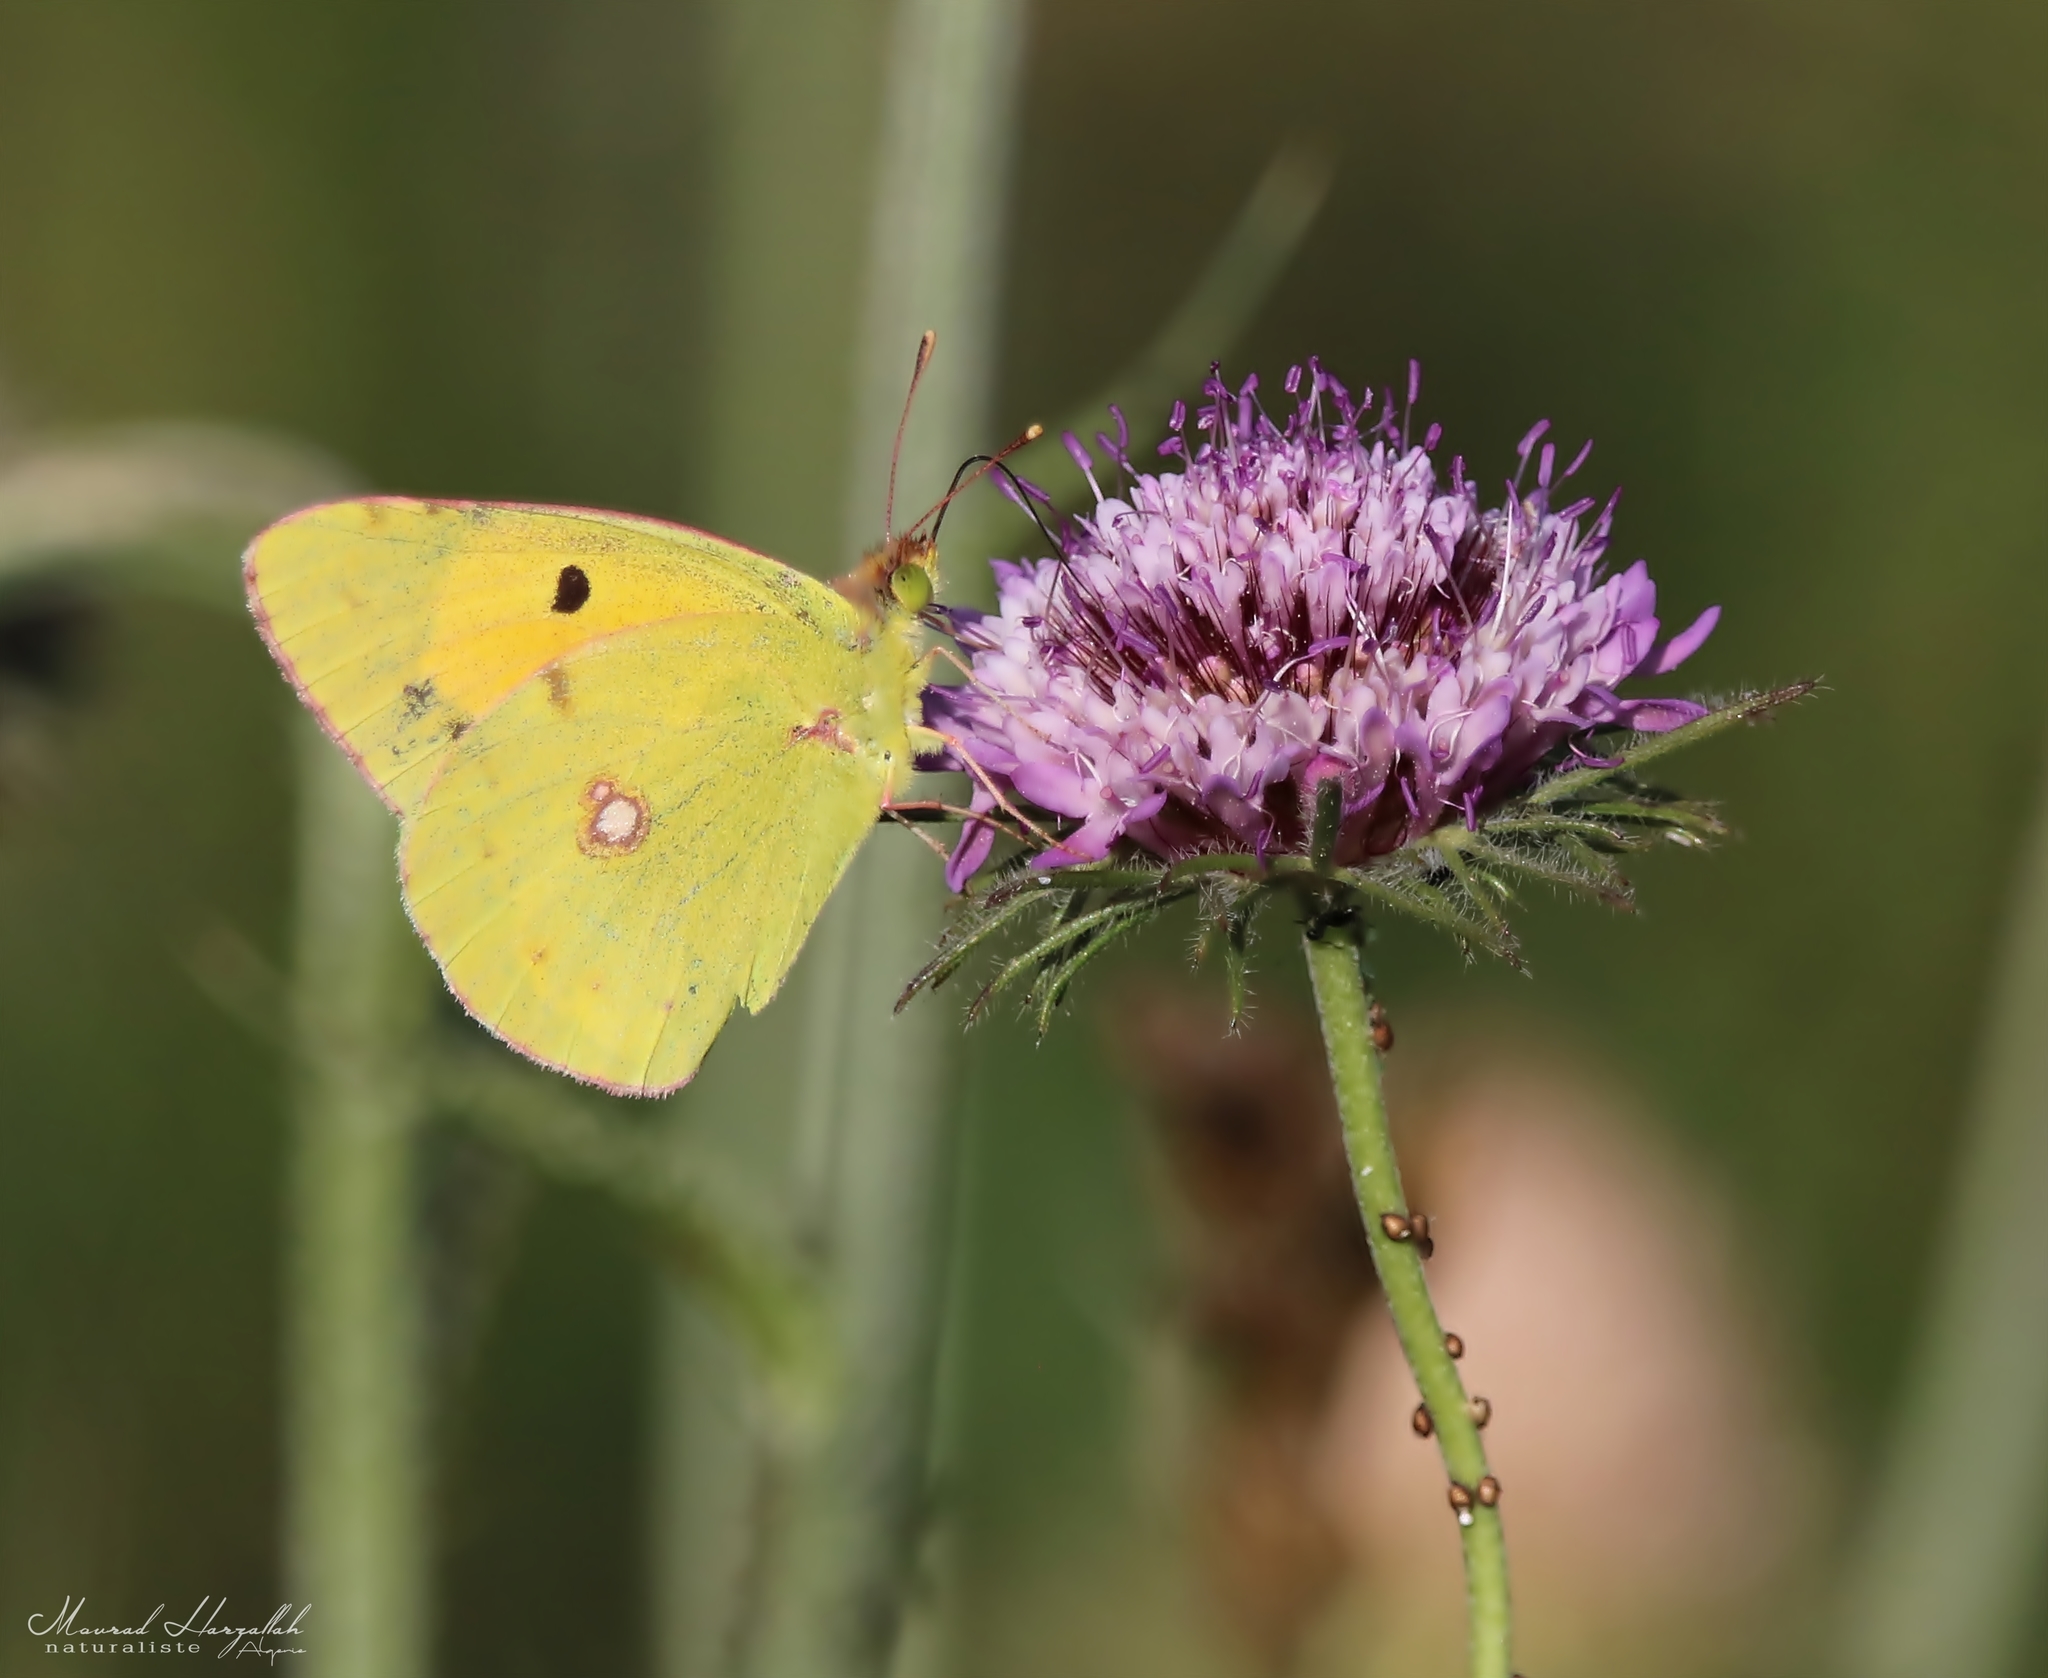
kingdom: Animalia
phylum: Arthropoda
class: Insecta
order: Lepidoptera
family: Pieridae
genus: Colias
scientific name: Colias croceus
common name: Clouded yellow
